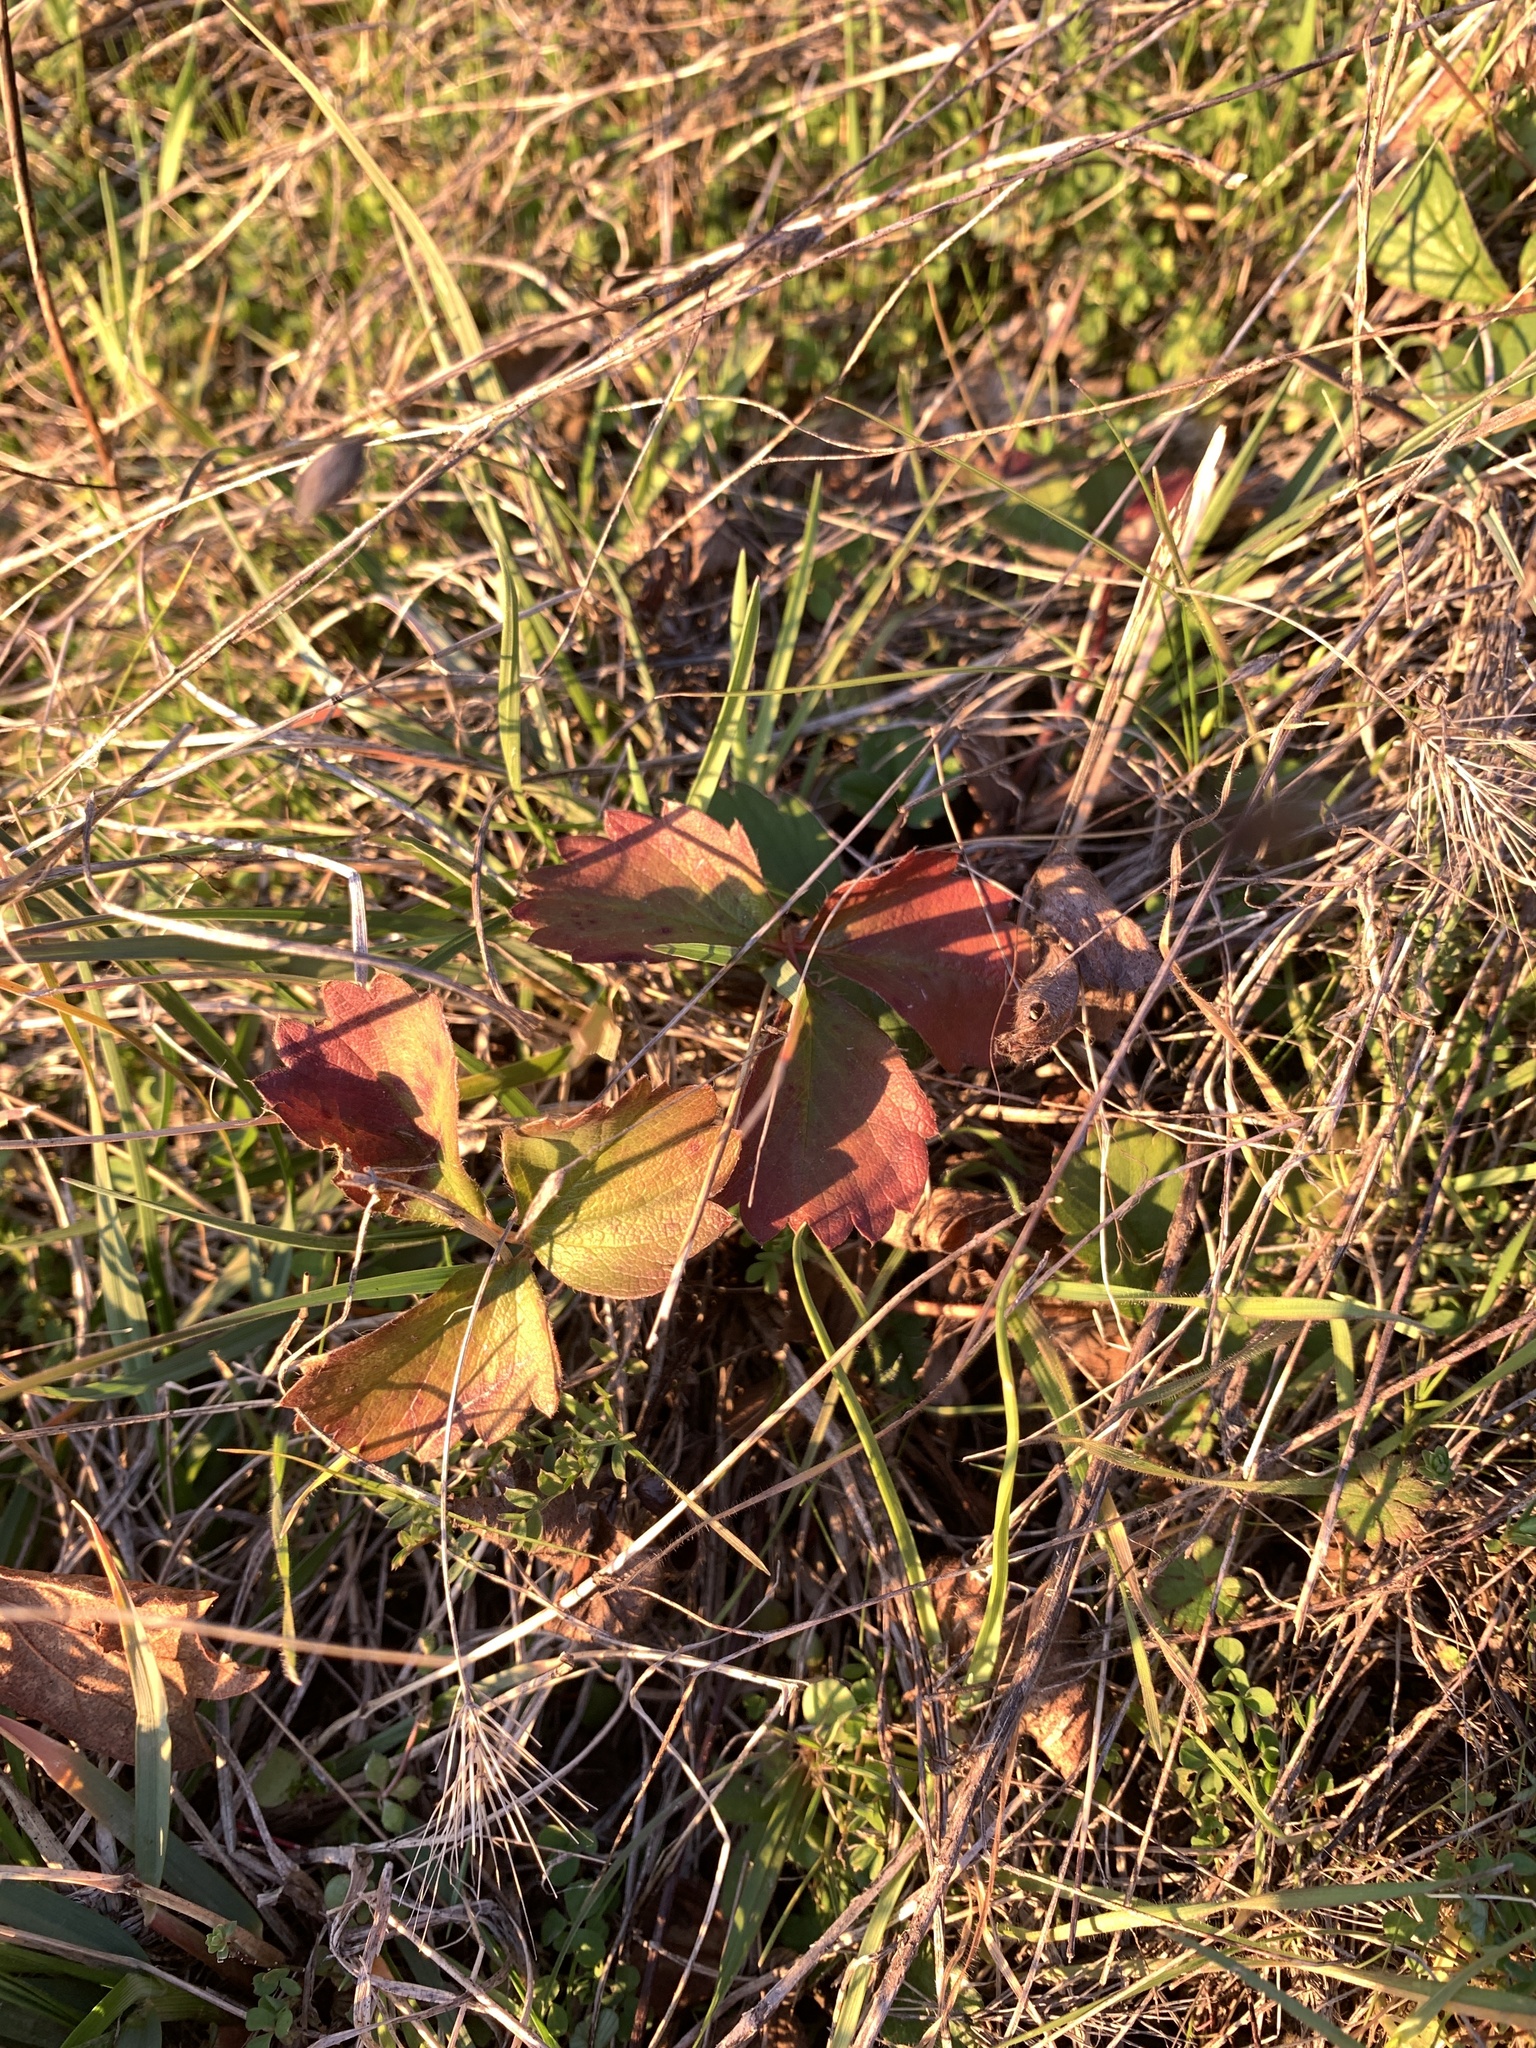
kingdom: Plantae
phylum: Tracheophyta
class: Magnoliopsida
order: Rosales
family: Rosaceae
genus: Fragaria
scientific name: Fragaria virginiana
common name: Thickleaved wild strawberry
